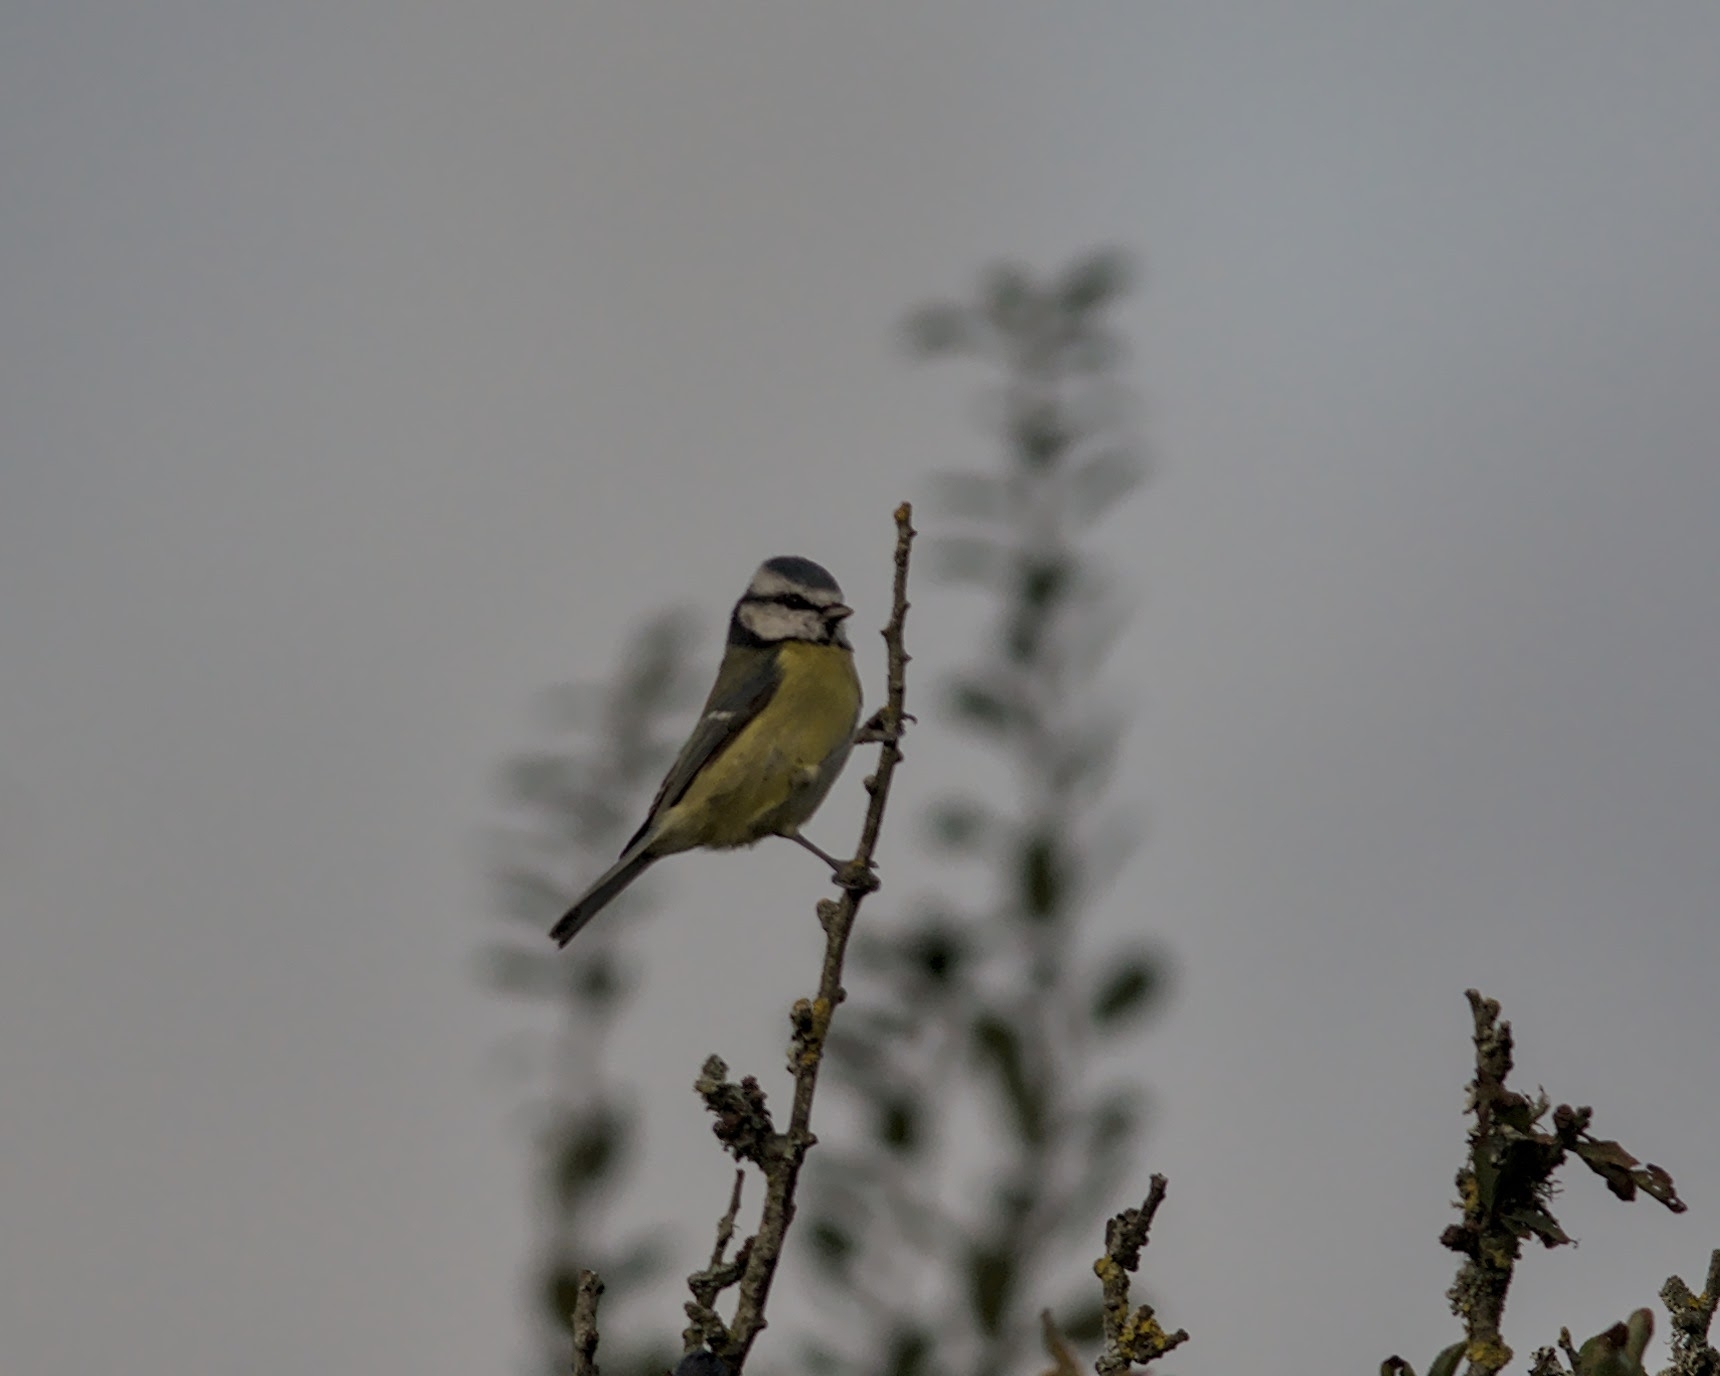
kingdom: Animalia
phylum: Chordata
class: Aves
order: Passeriformes
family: Paridae
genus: Cyanistes
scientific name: Cyanistes caeruleus
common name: Eurasian blue tit
